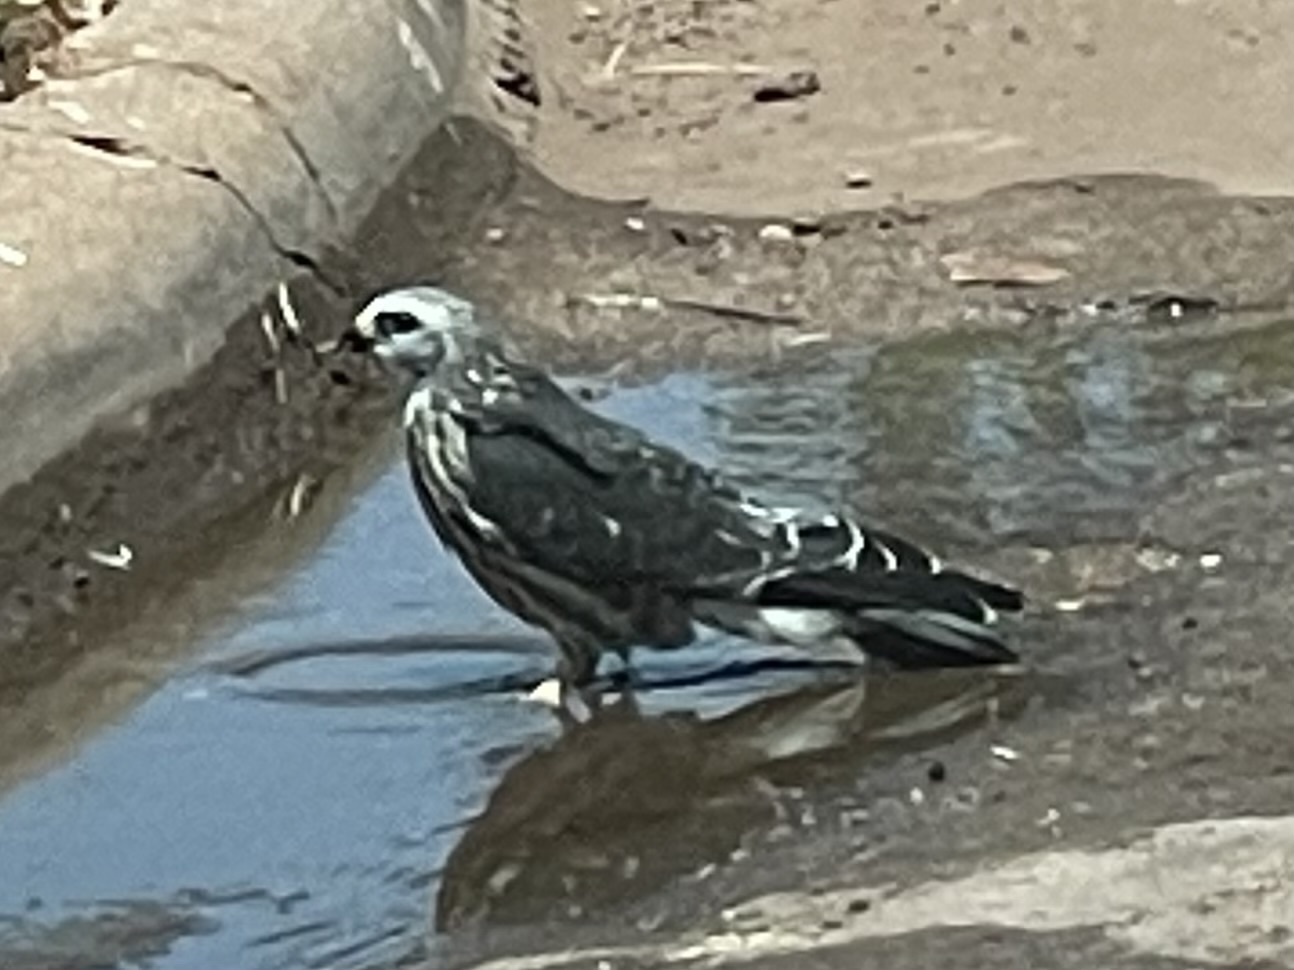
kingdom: Animalia
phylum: Chordata
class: Aves
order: Accipitriformes
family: Accipitridae
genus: Ictinia
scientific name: Ictinia mississippiensis
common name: Mississippi kite
